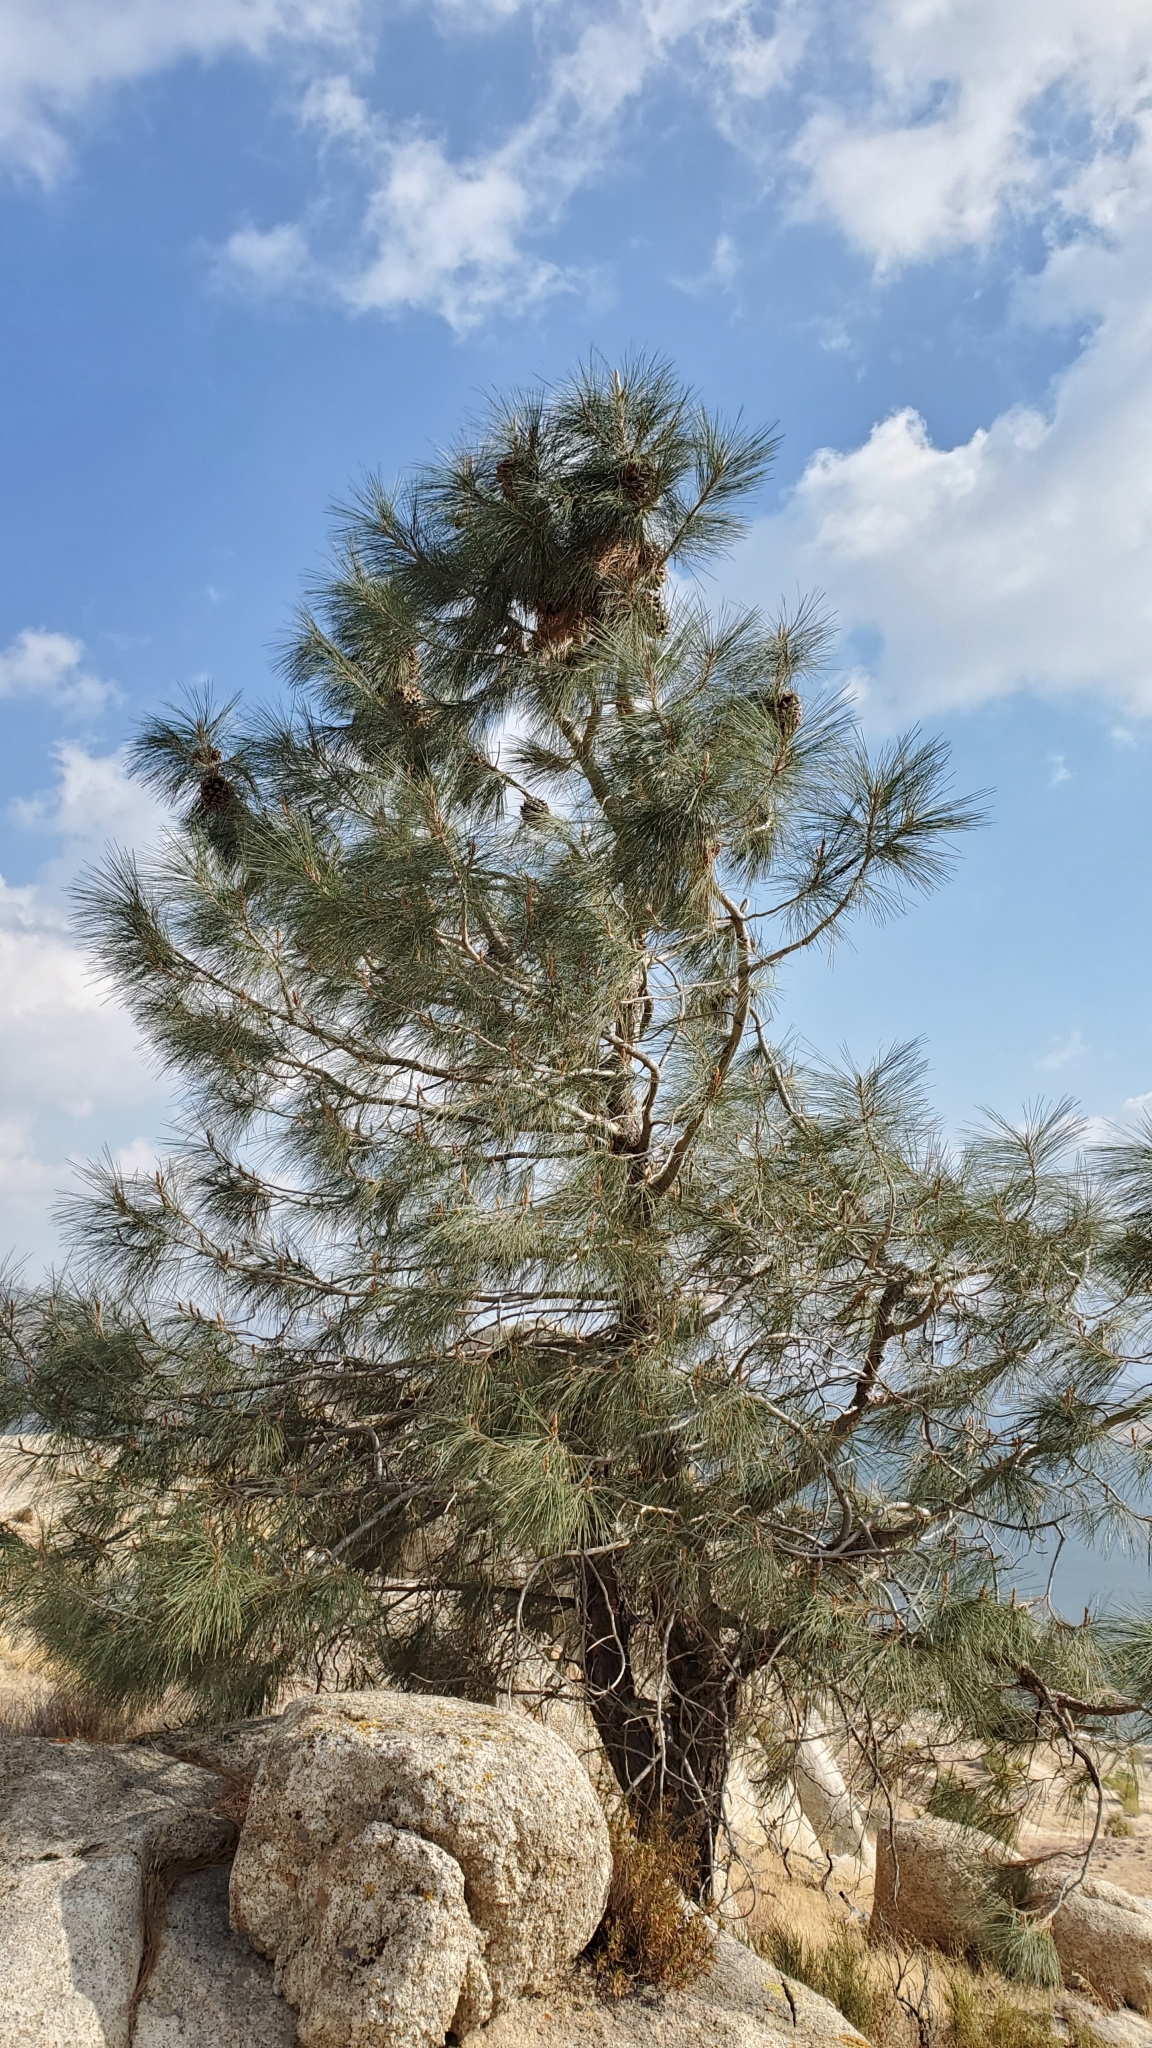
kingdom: Plantae
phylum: Tracheophyta
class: Pinopsida
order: Pinales
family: Pinaceae
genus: Pinus
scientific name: Pinus sabiniana
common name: Bull pine
